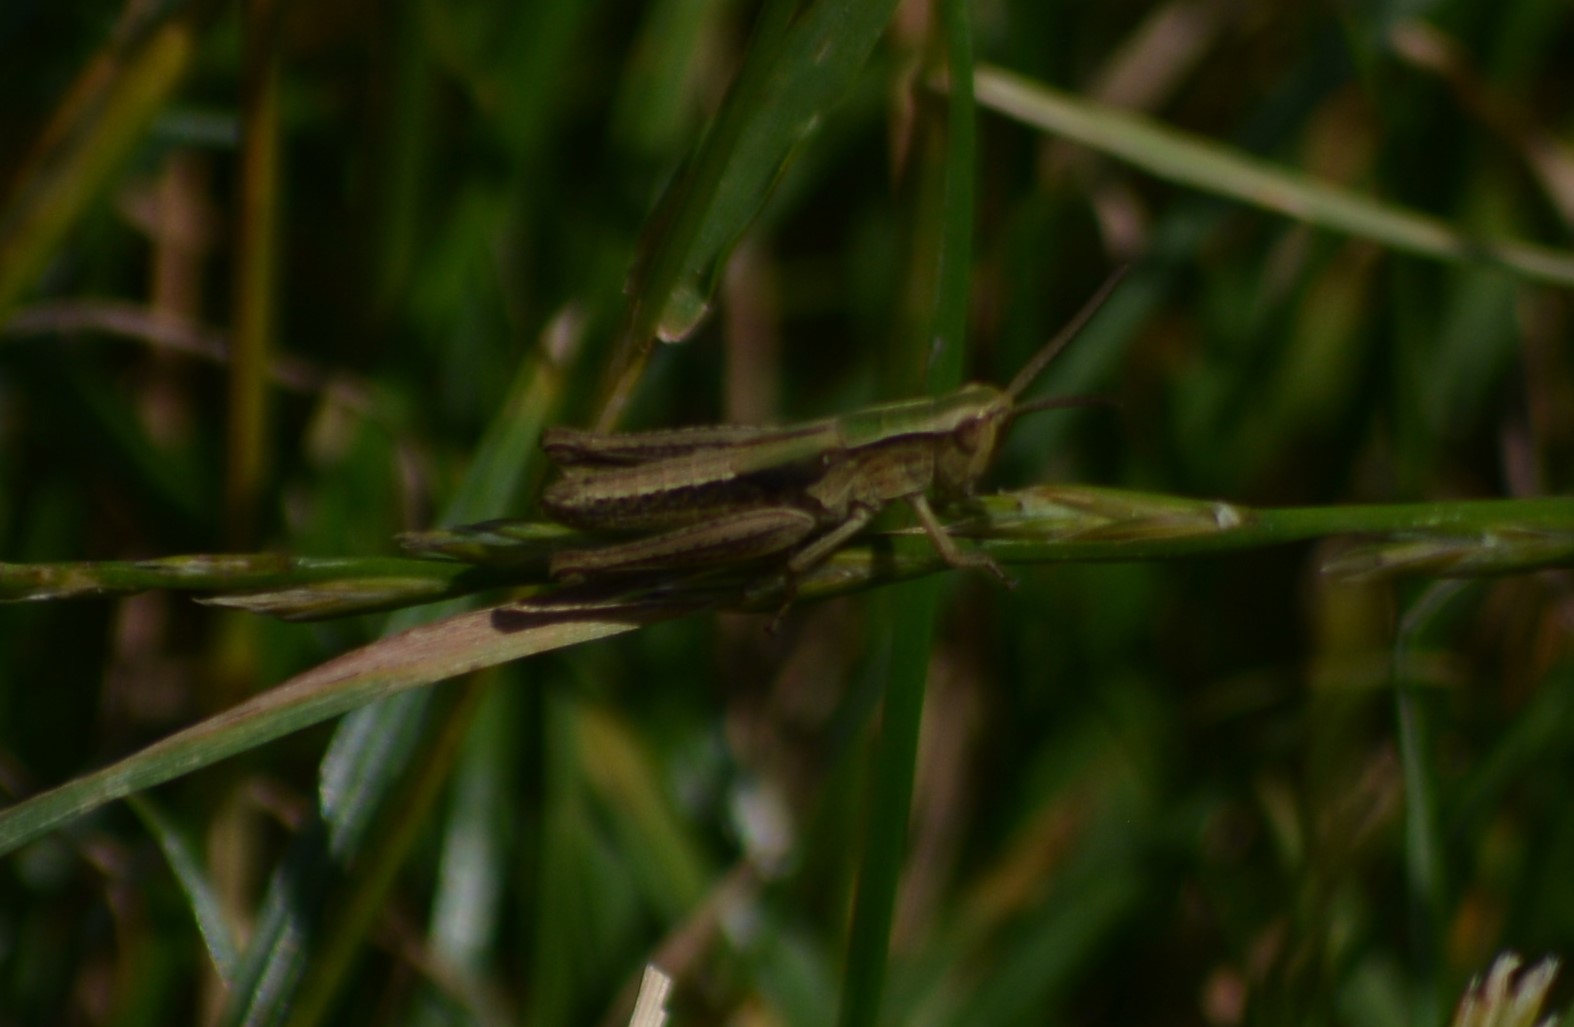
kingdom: Animalia
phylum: Arthropoda
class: Insecta
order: Orthoptera
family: Acrididae
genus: Chorthippus
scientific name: Chorthippus albomarginatus
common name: Lesser marsh grasshopper
